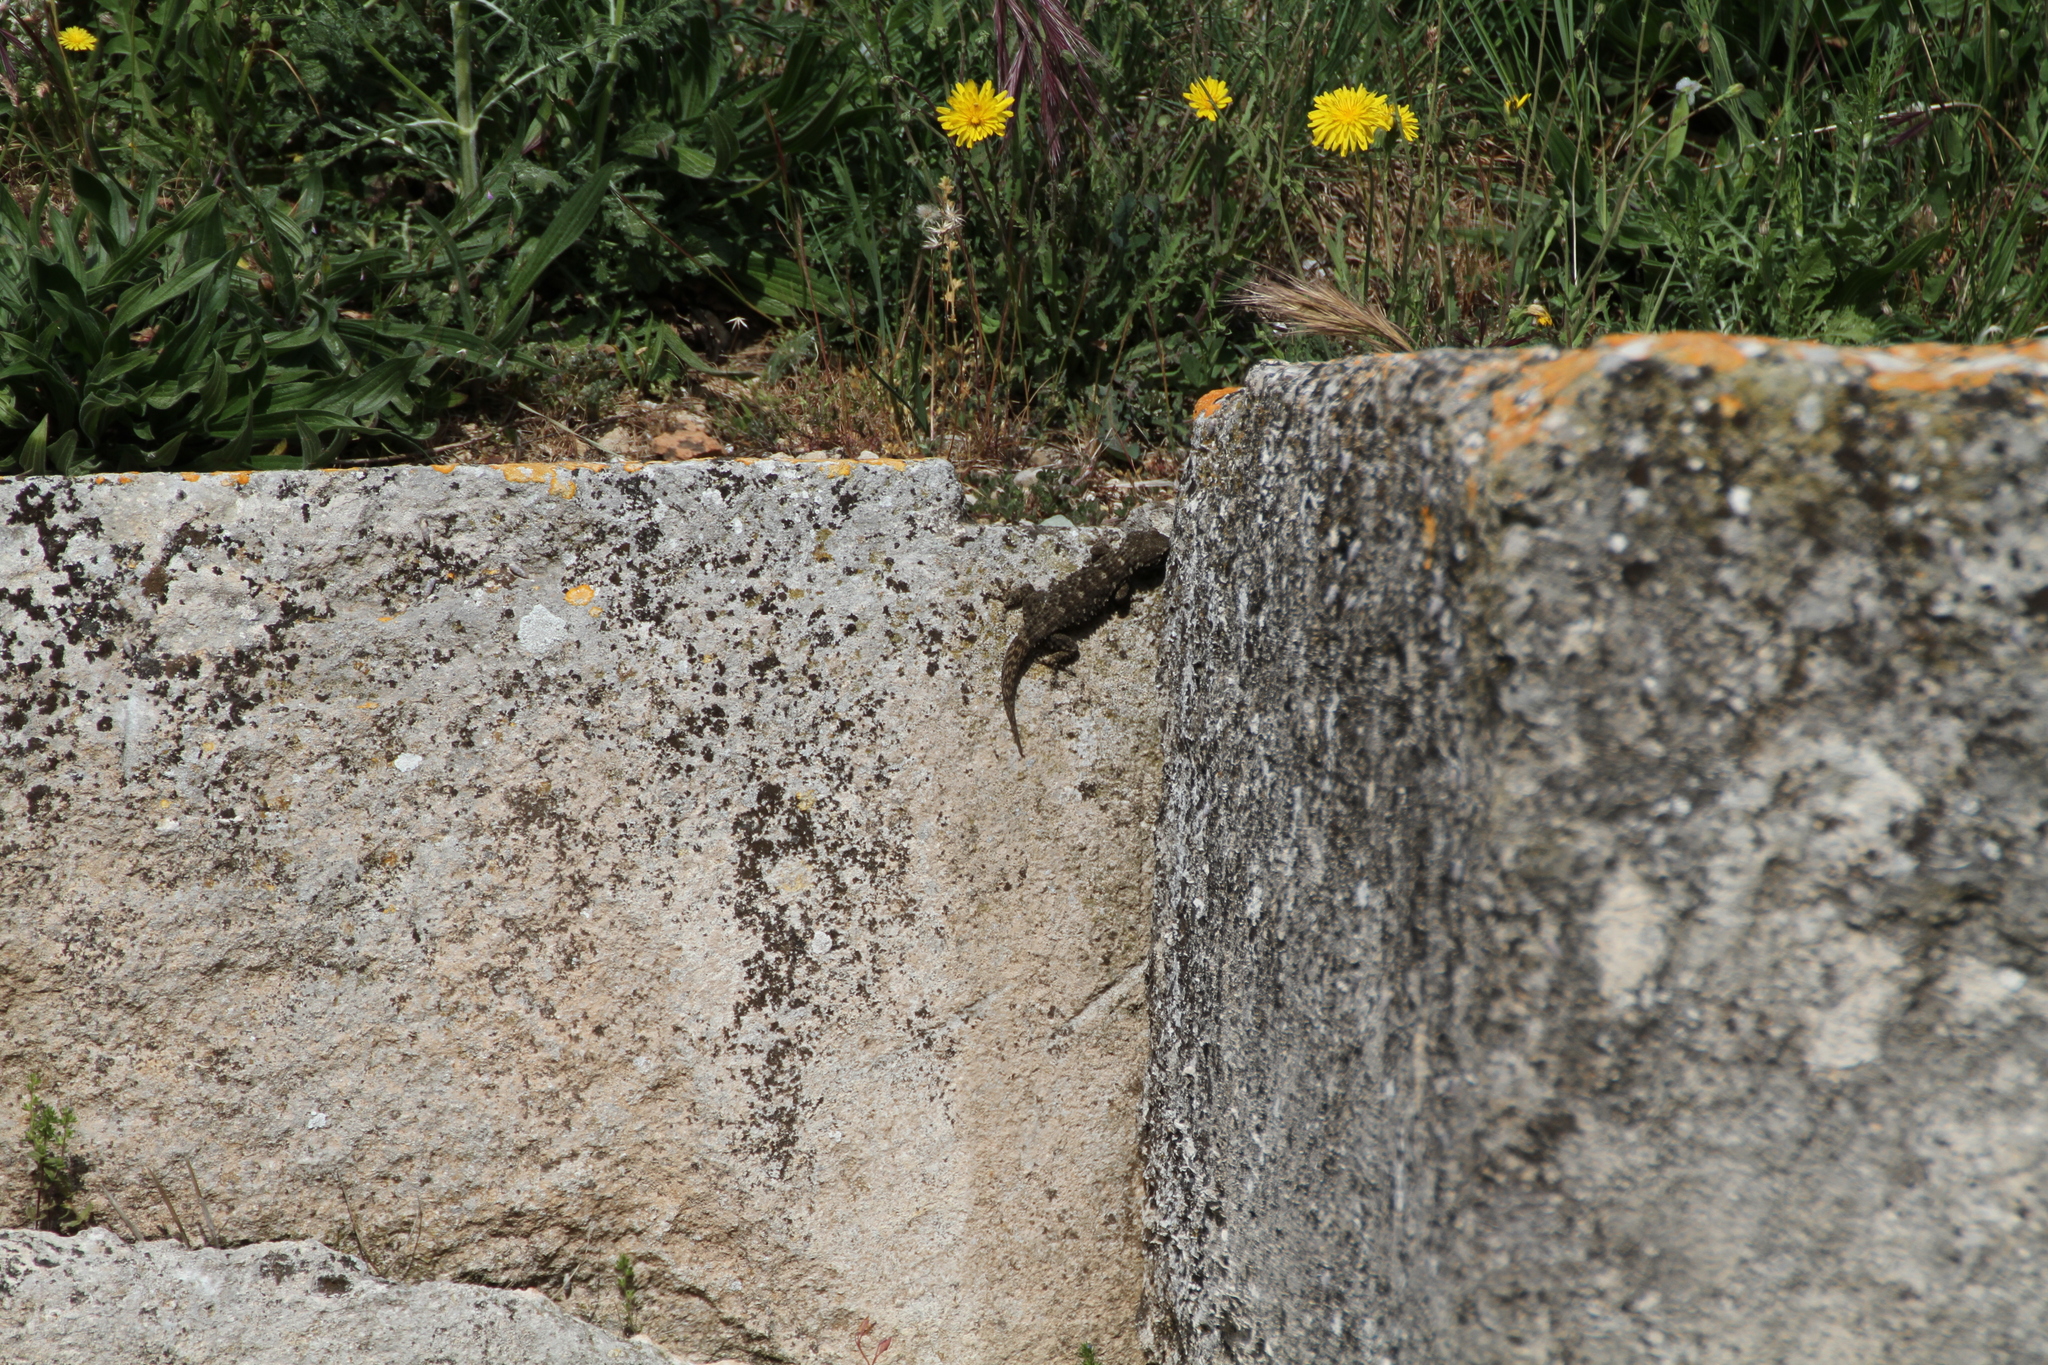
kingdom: Animalia
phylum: Chordata
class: Squamata
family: Phyllodactylidae
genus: Tarentola
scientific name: Tarentola mauritanica
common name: Moorish gecko
